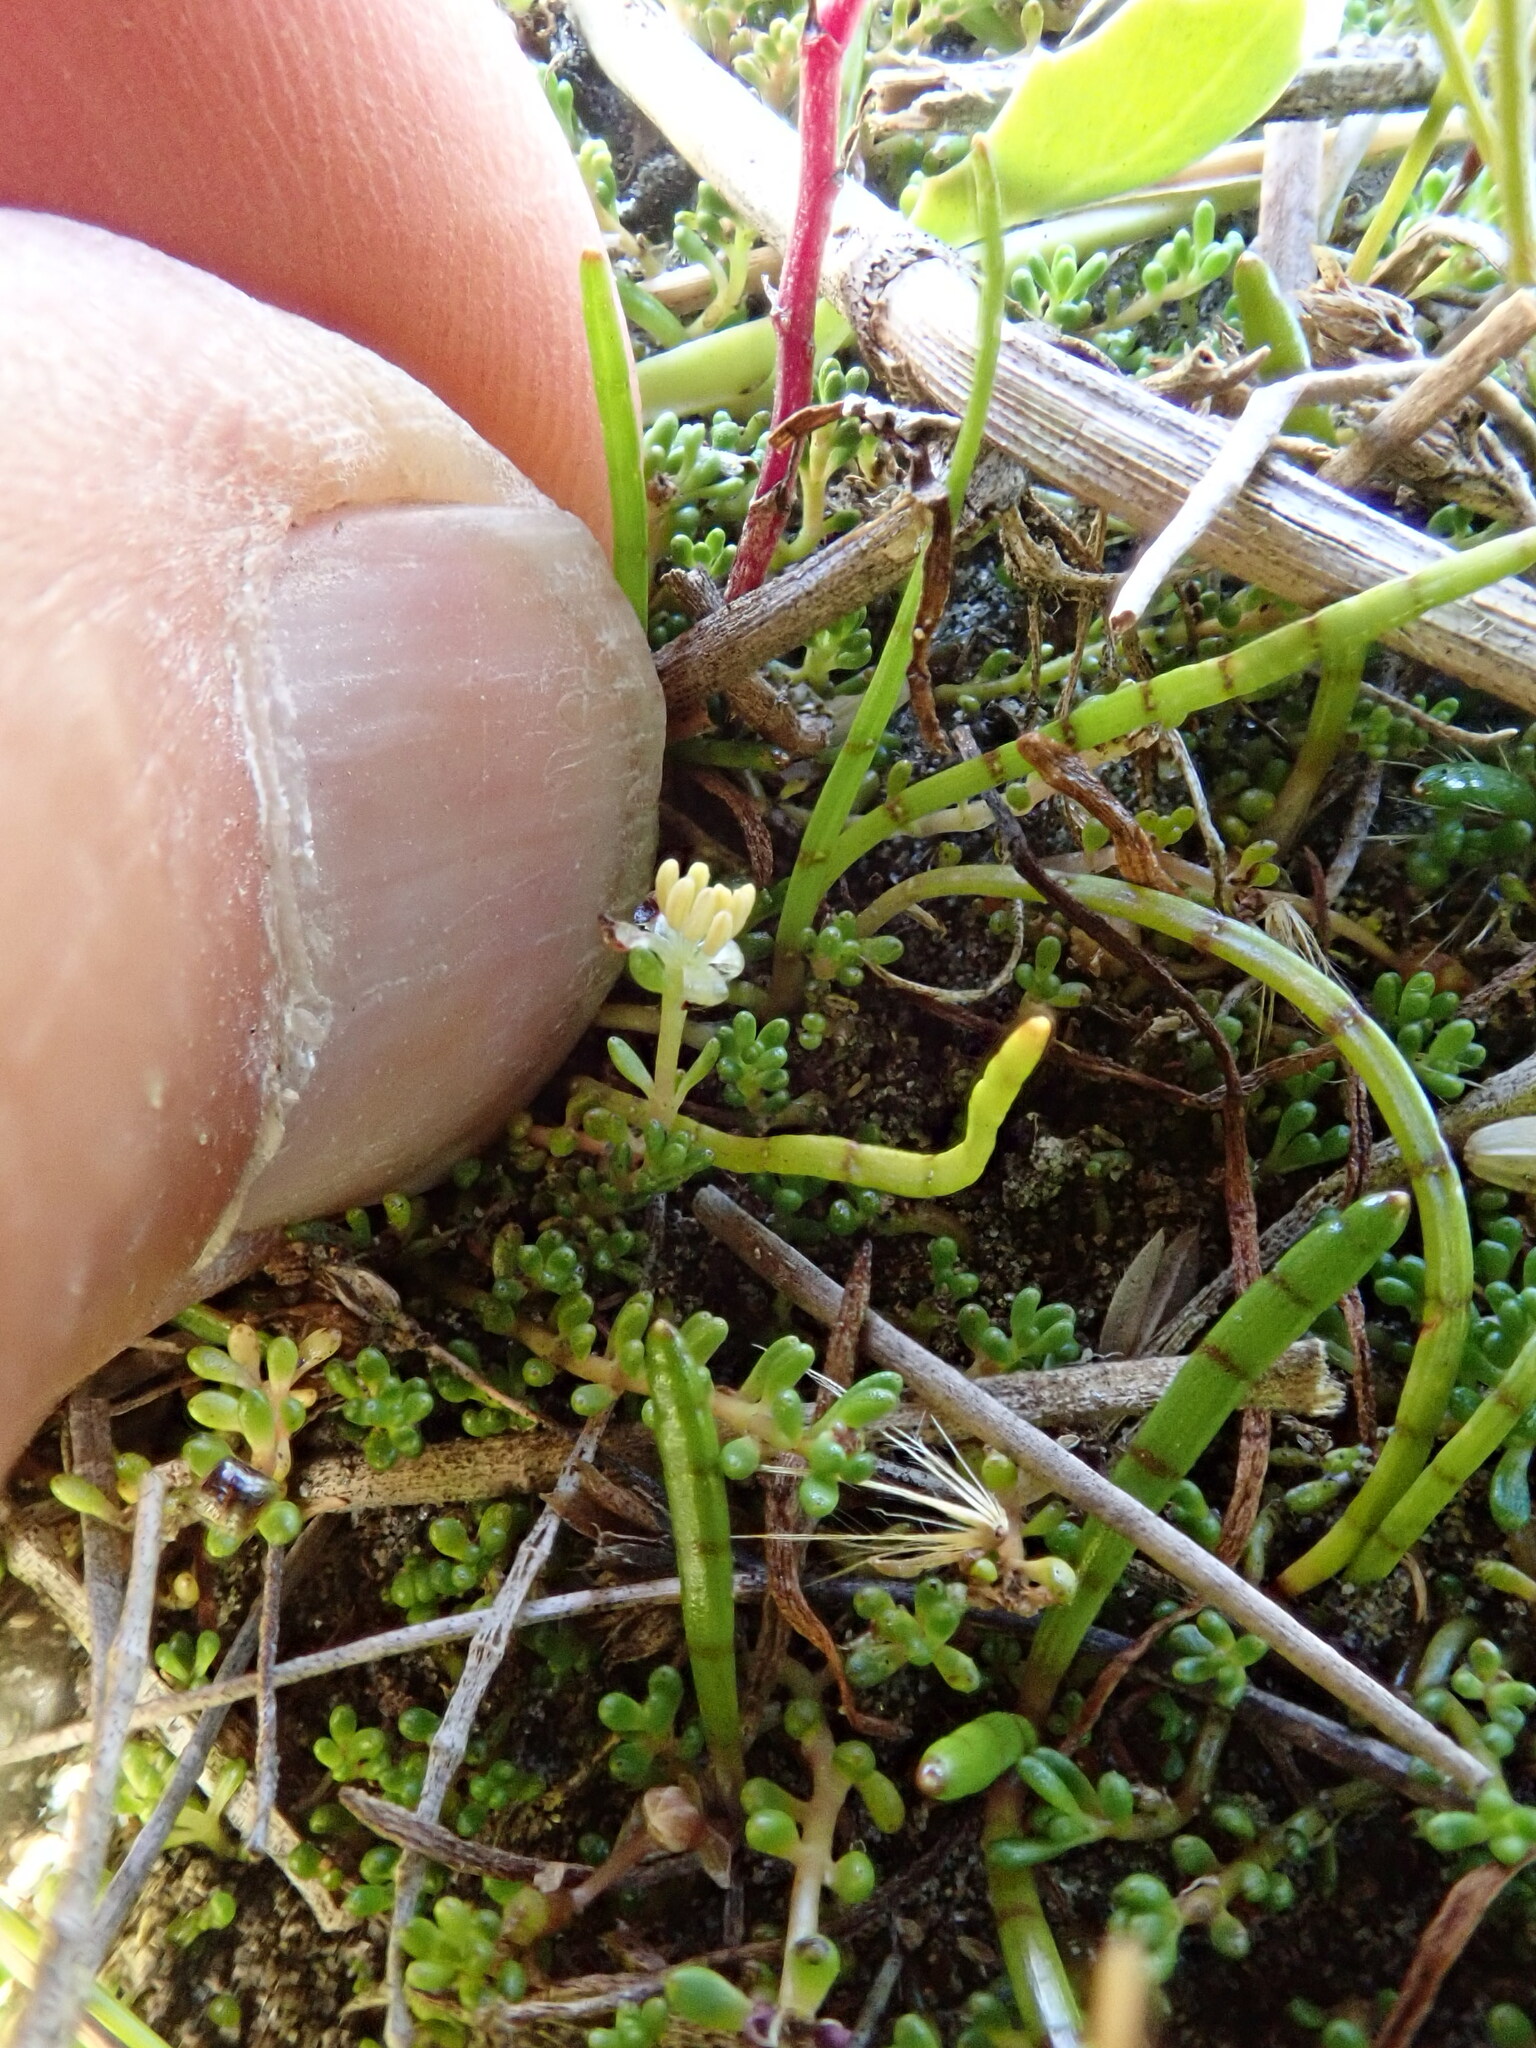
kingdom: Plantae
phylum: Tracheophyta
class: Magnoliopsida
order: Saxifragales
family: Haloragaceae
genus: Myriophyllum
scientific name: Myriophyllum votschii
